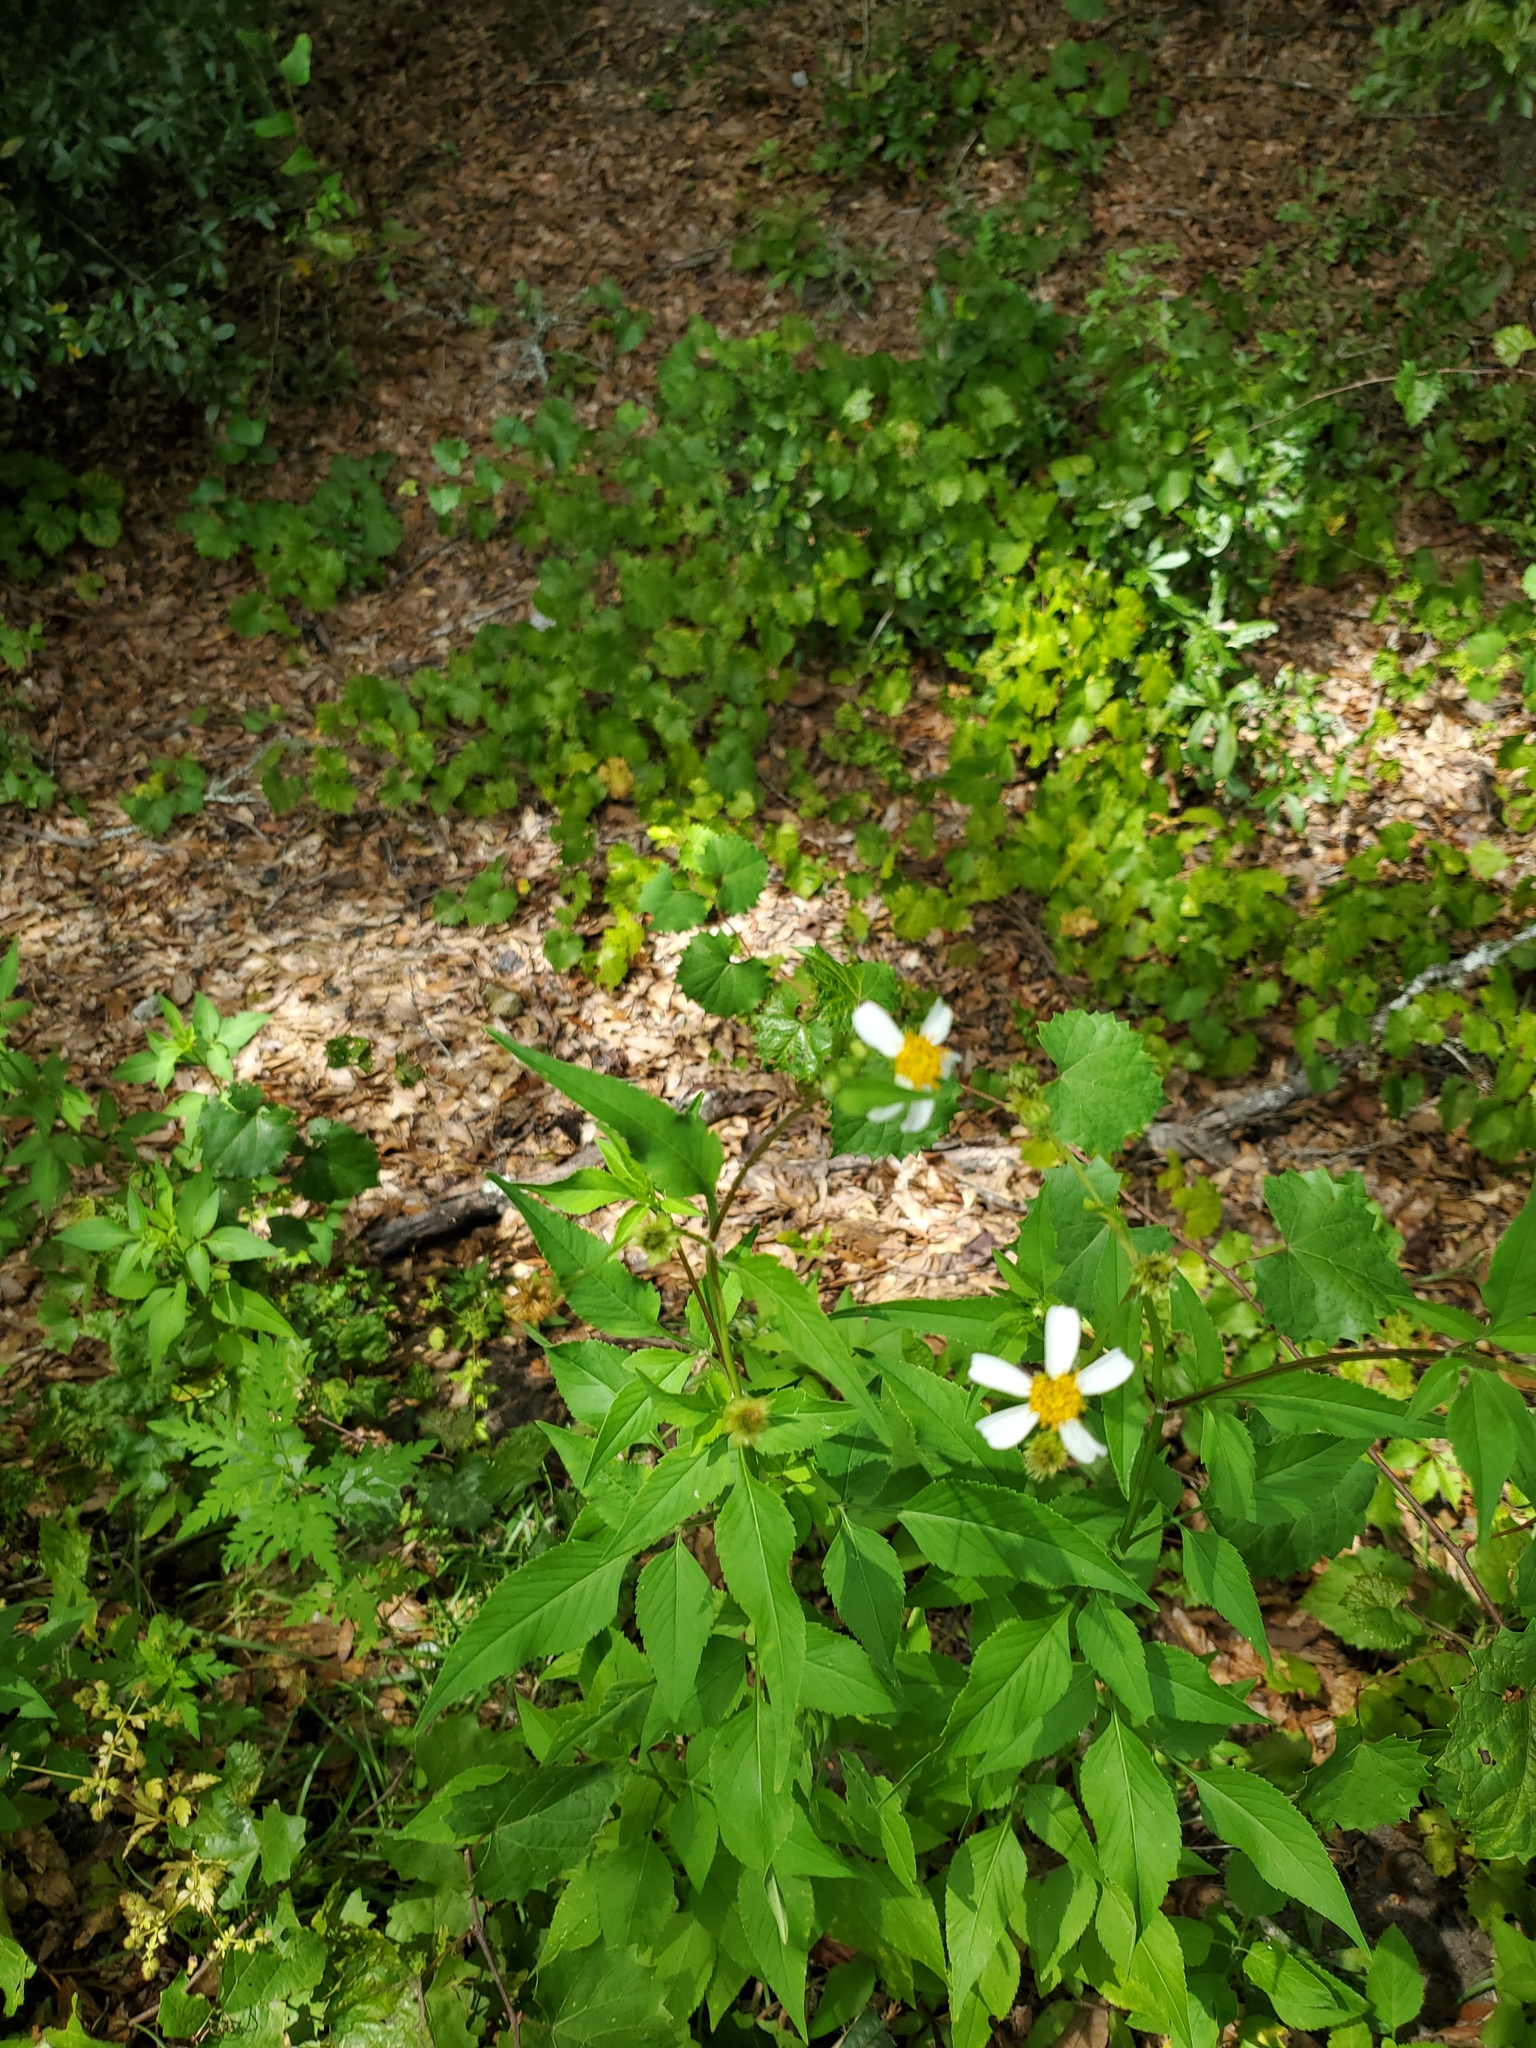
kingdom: Plantae
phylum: Tracheophyta
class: Magnoliopsida
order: Asterales
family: Asteraceae
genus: Bidens
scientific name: Bidens alba
